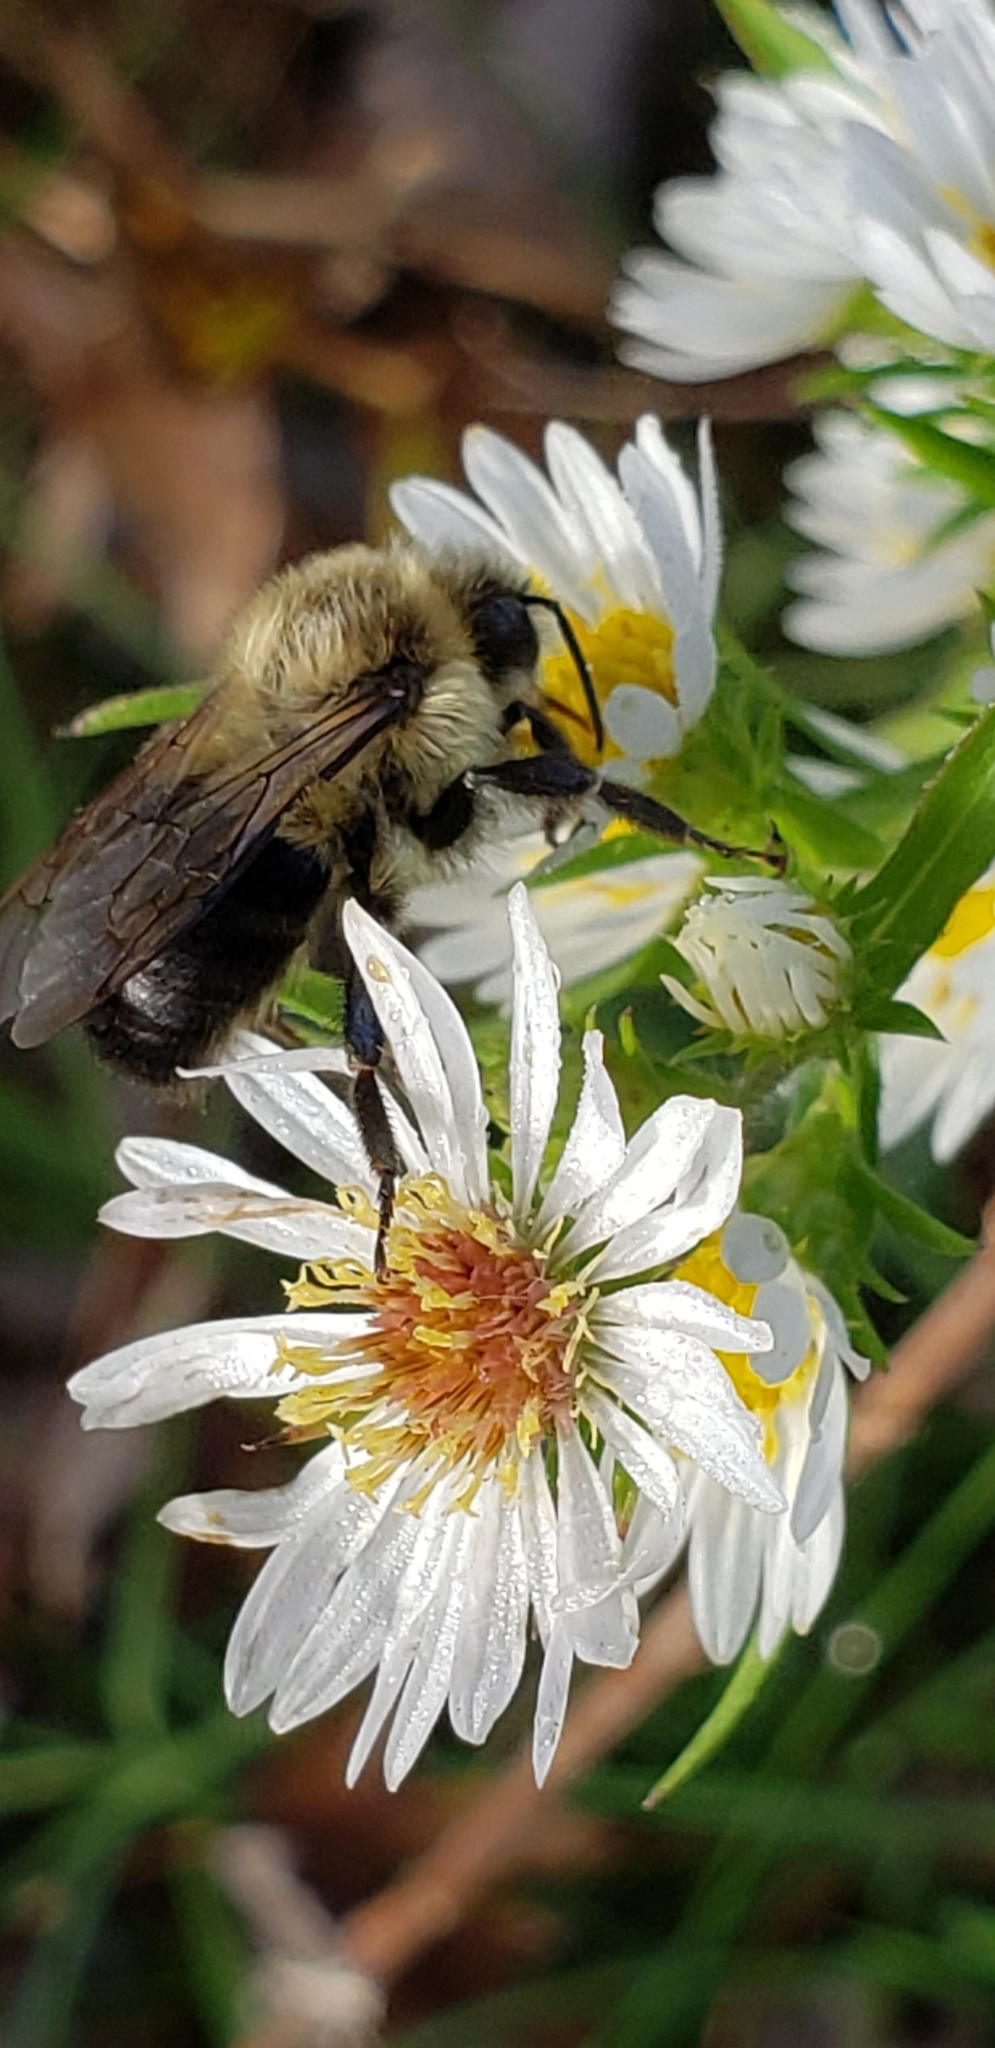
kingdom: Animalia
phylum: Arthropoda
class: Insecta
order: Hymenoptera
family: Apidae
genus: Bombus
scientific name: Bombus impatiens
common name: Common eastern bumble bee
